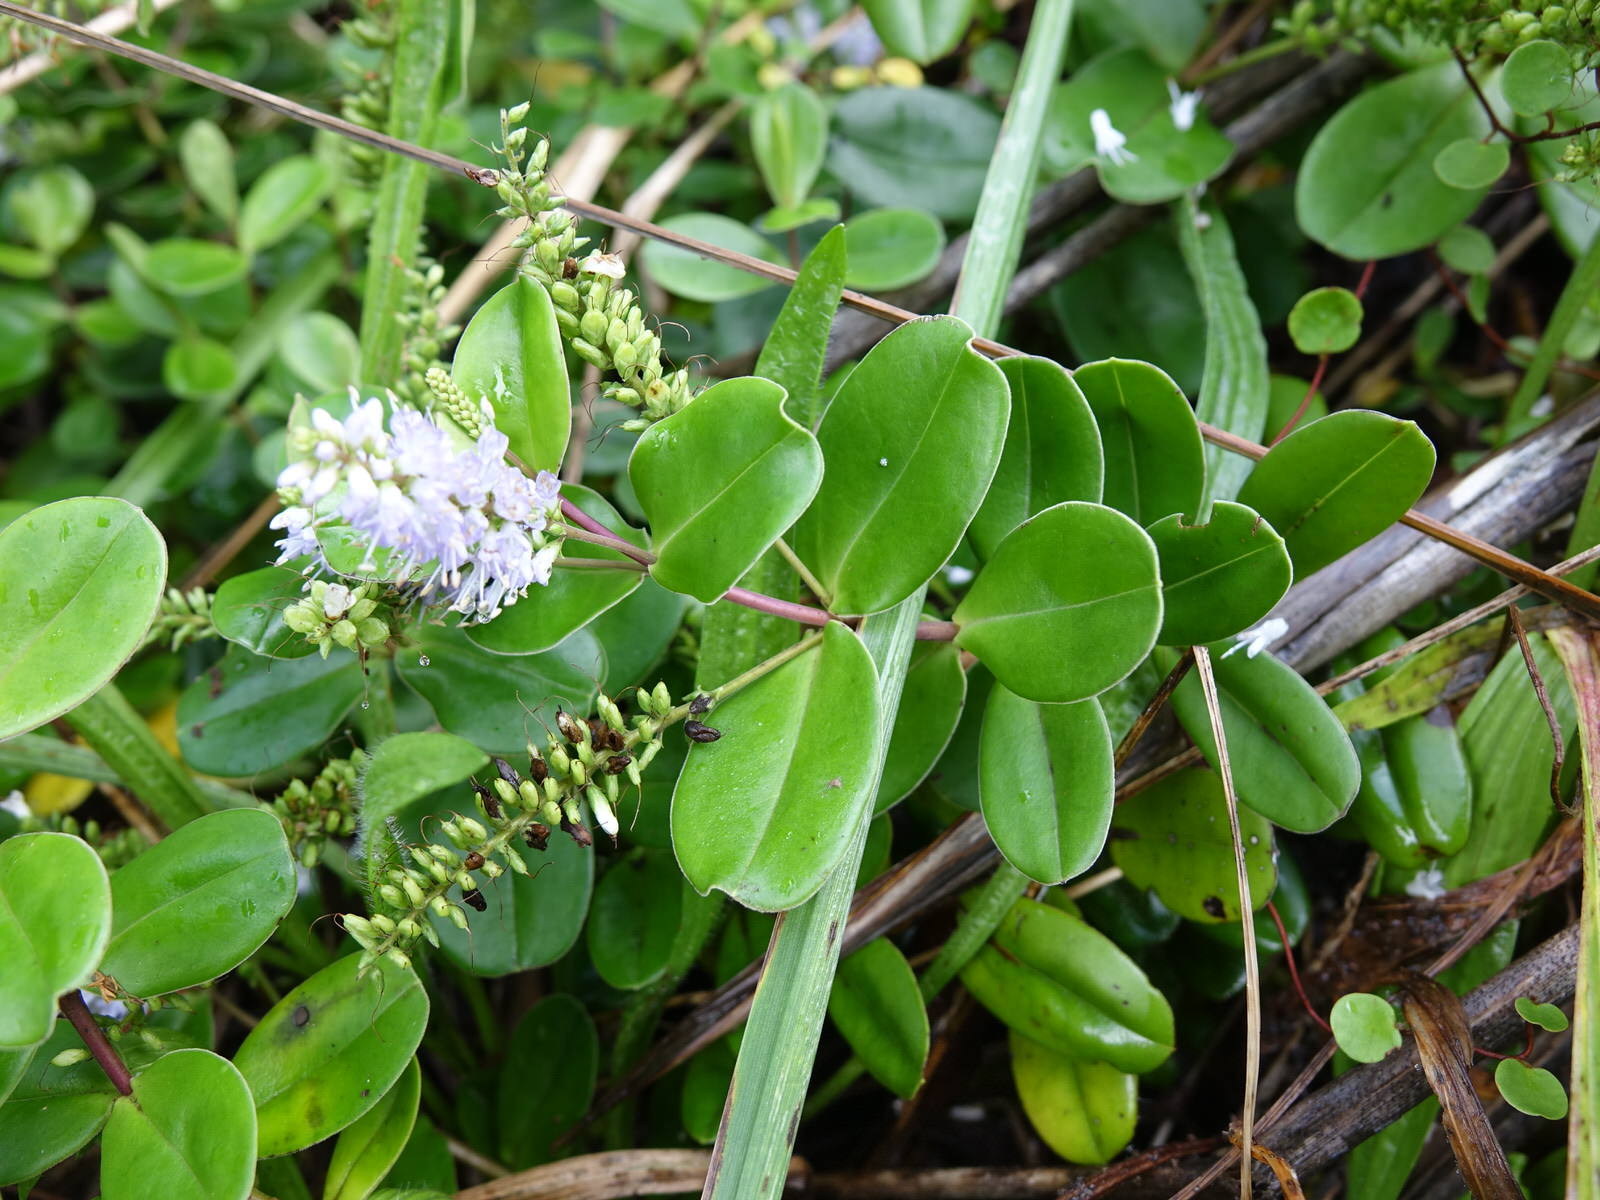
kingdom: Plantae
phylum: Tracheophyta
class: Magnoliopsida
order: Lamiales
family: Plantaginaceae
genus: Veronica
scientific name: Veronica obtusata
